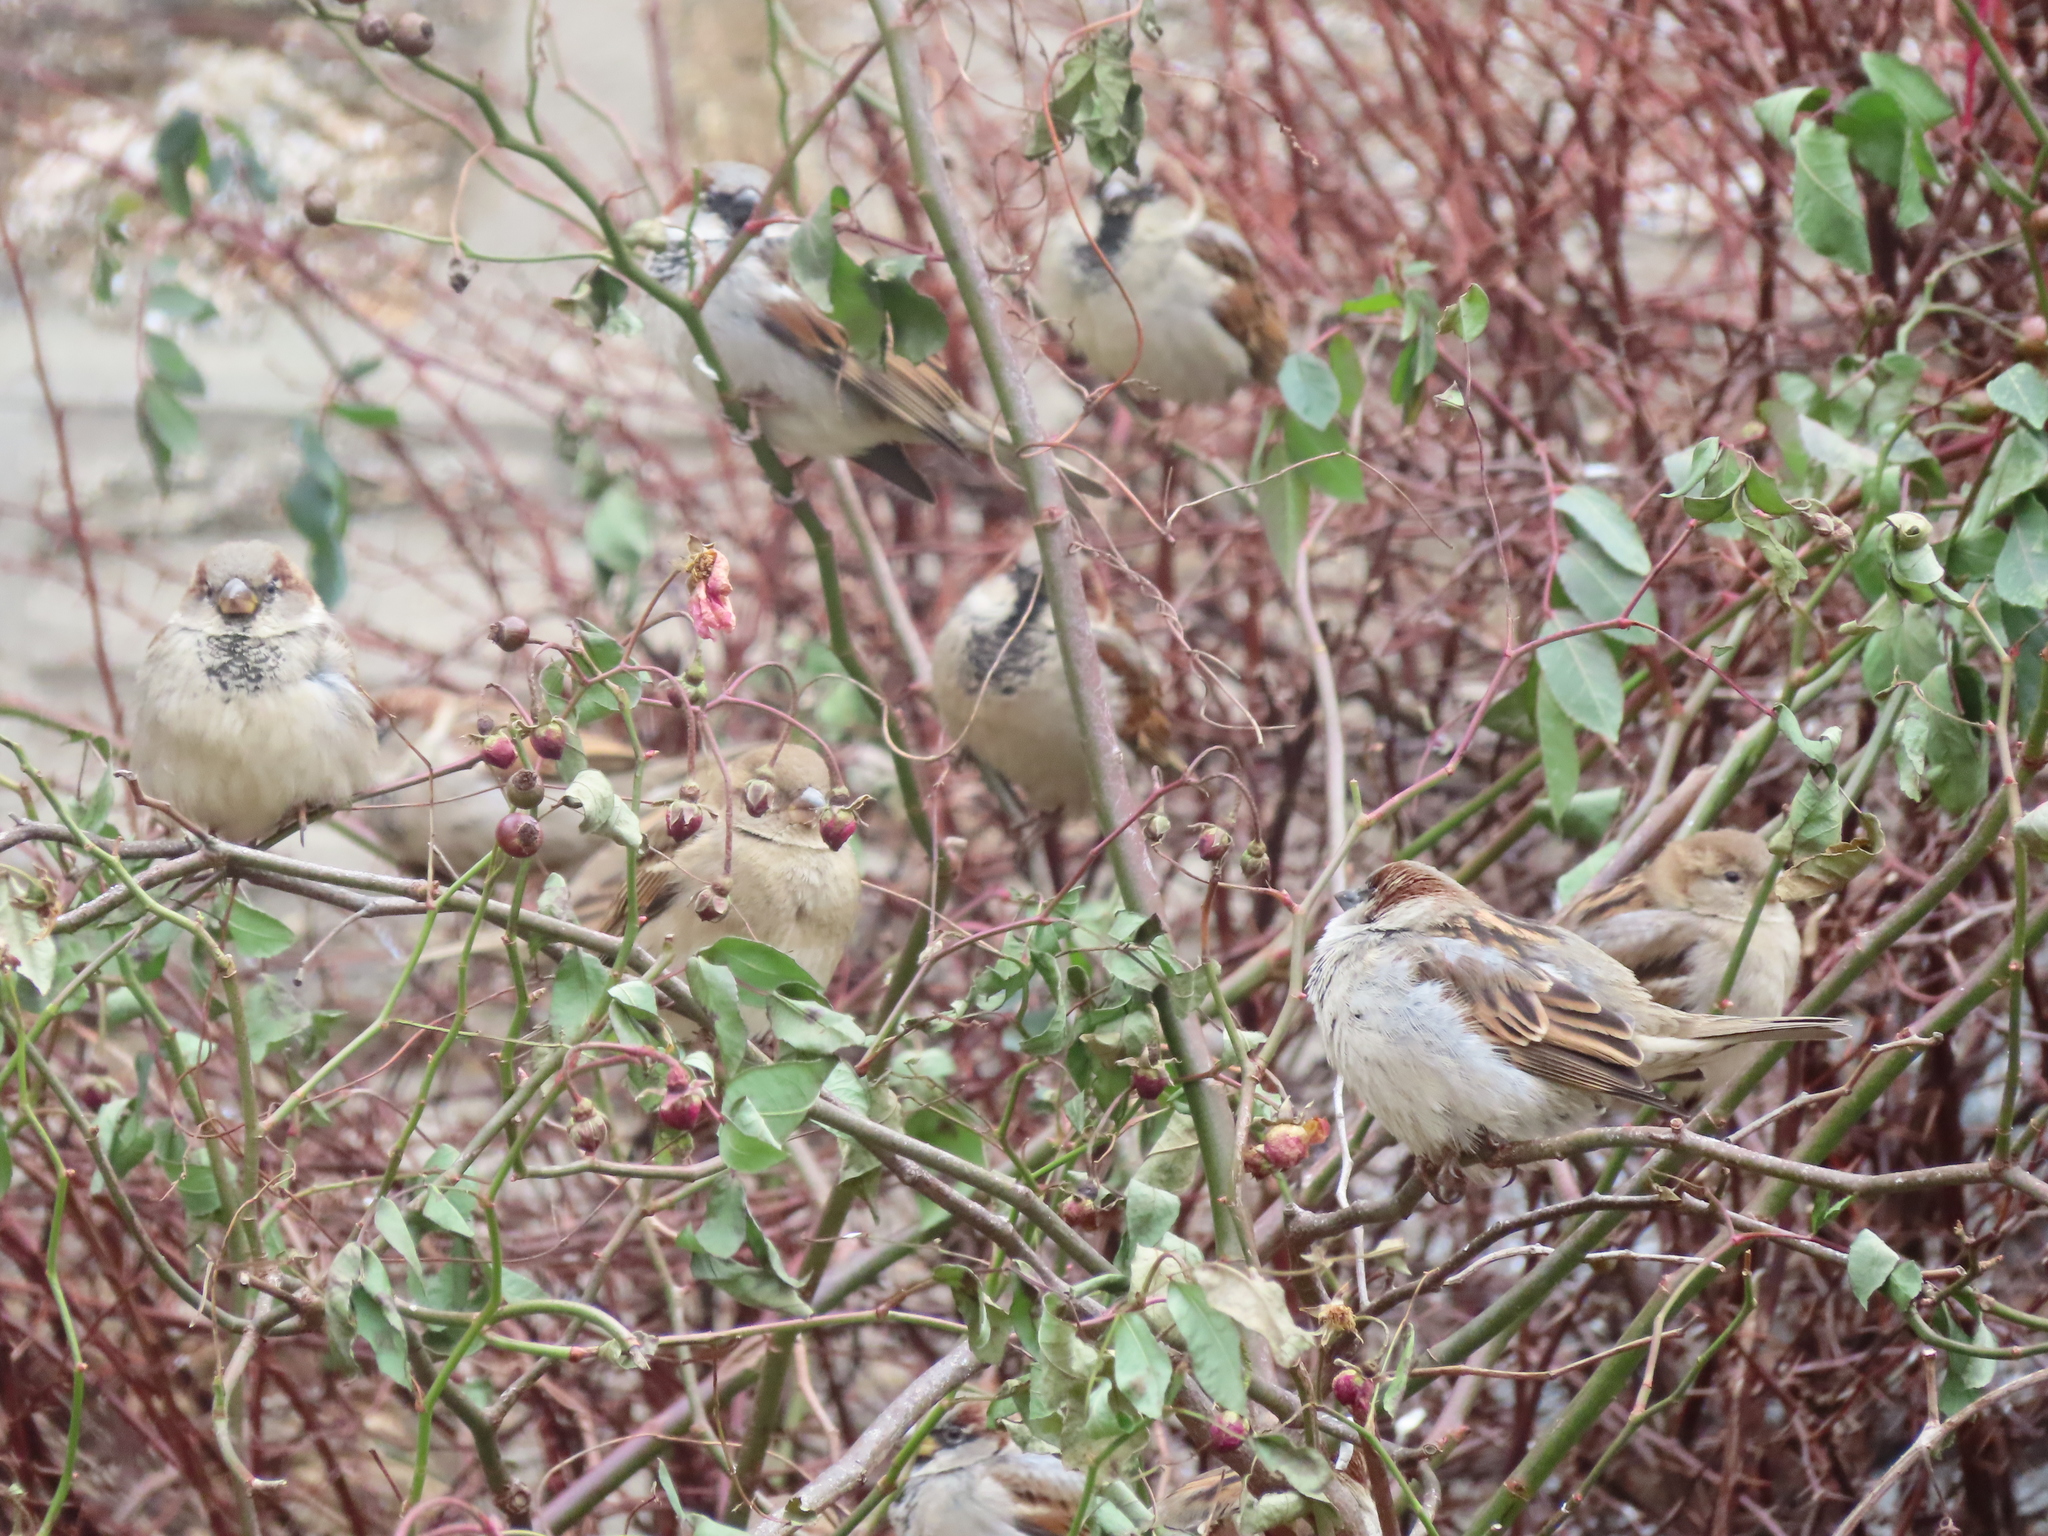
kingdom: Animalia
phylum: Chordata
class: Aves
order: Passeriformes
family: Passeridae
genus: Passer
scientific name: Passer domesticus
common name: House sparrow
